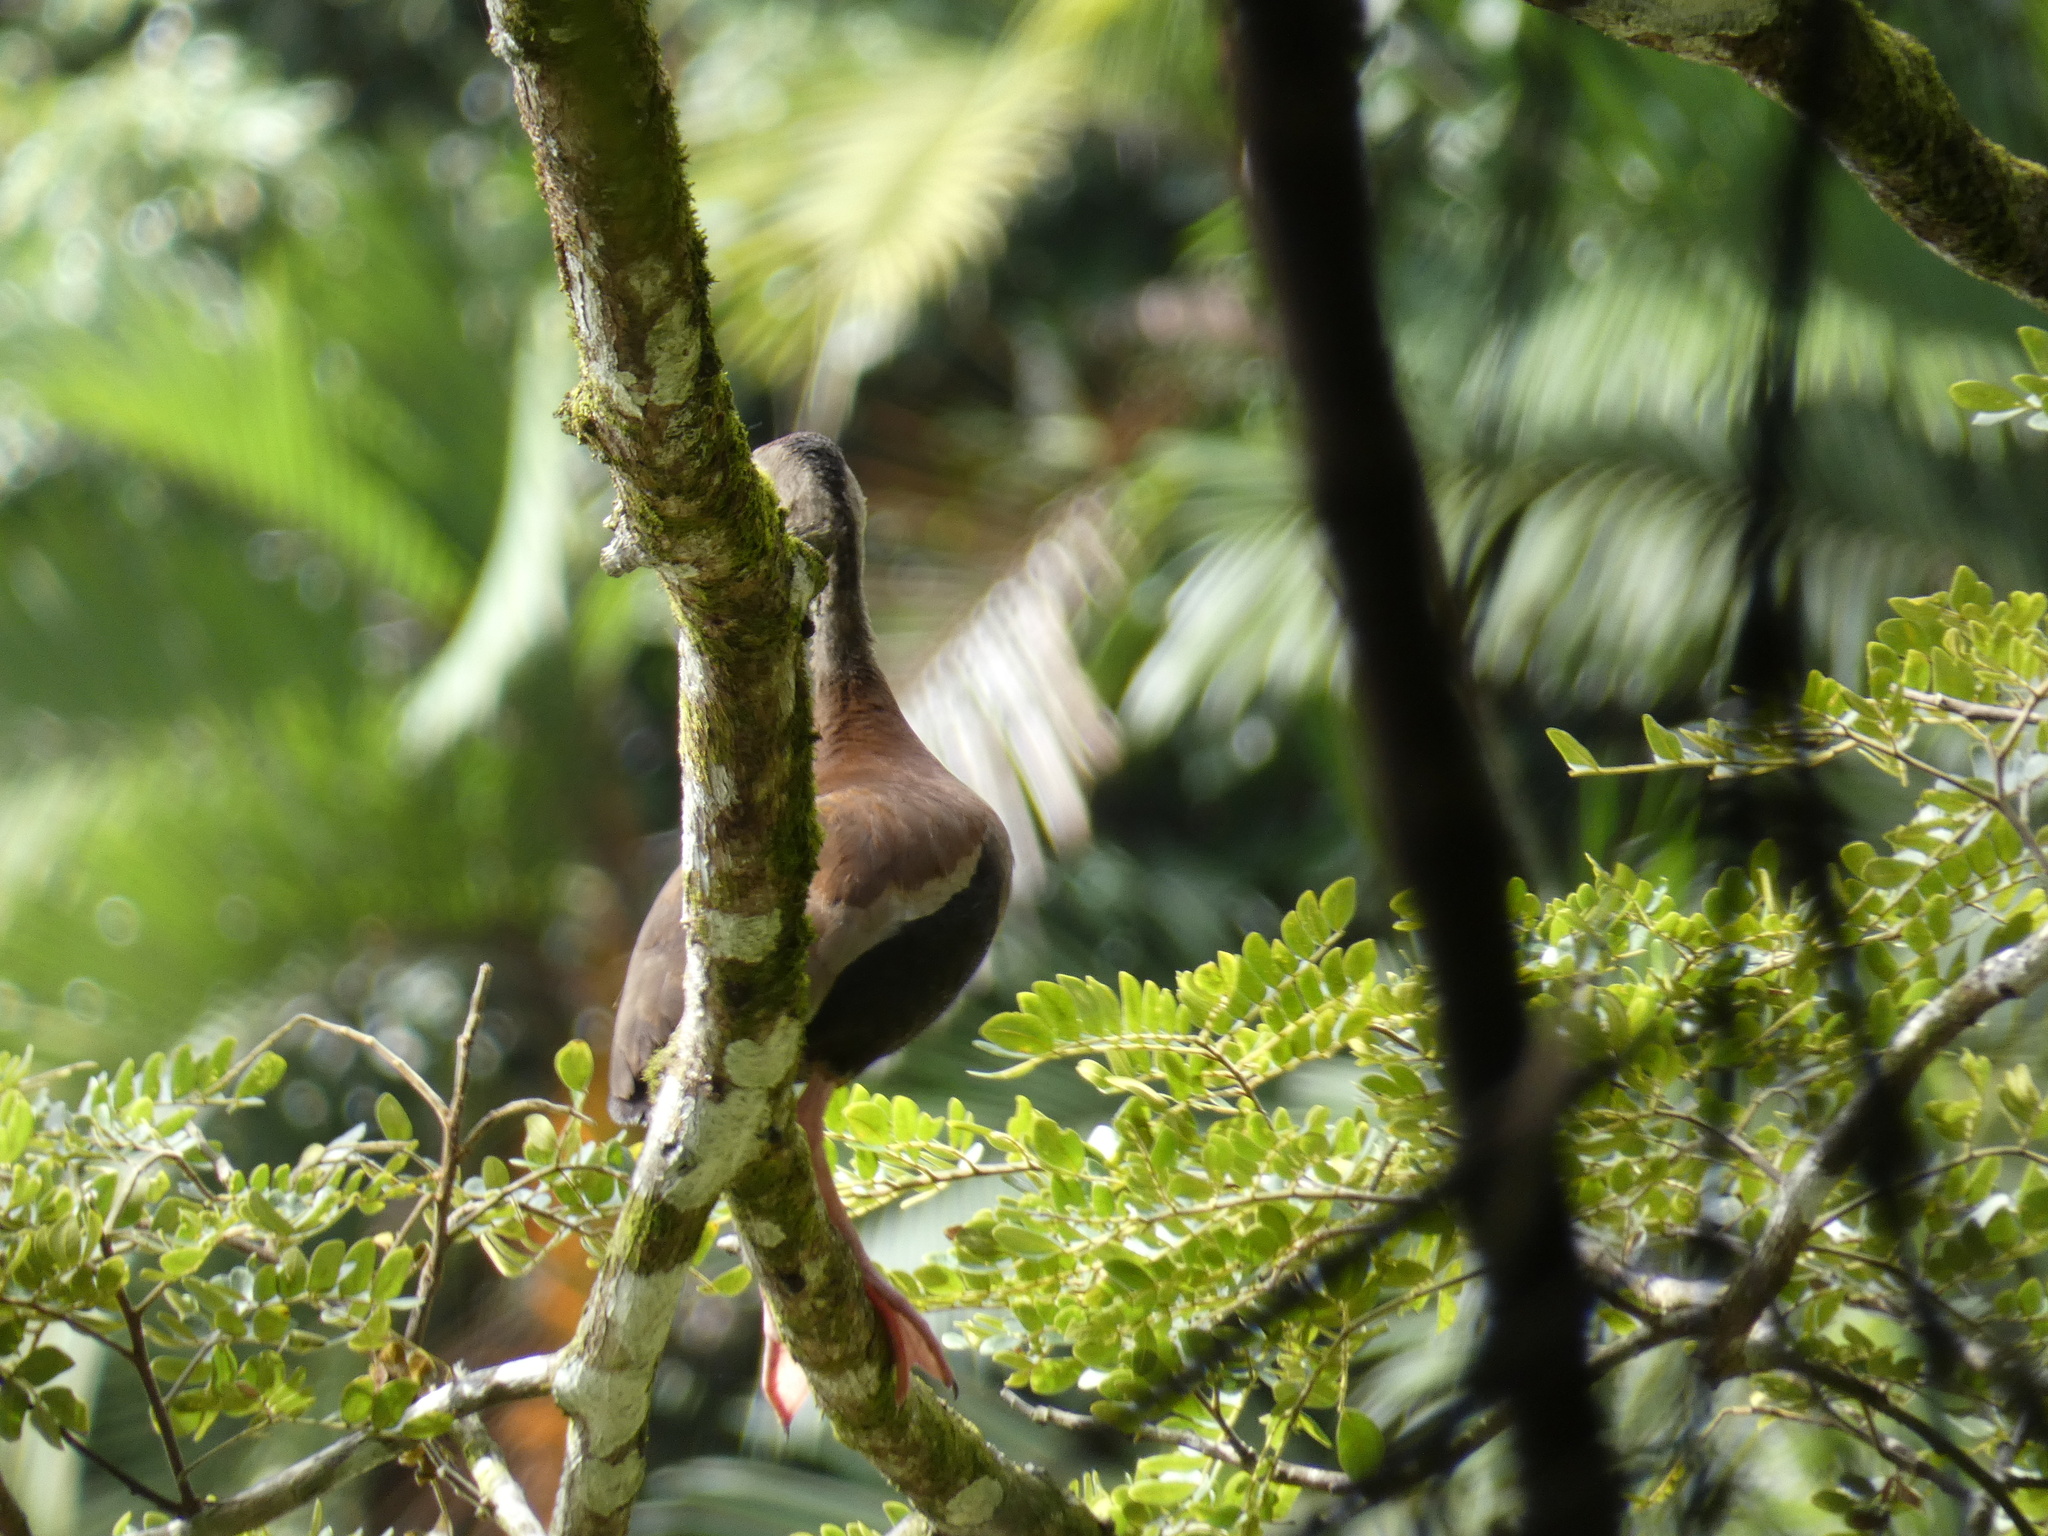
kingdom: Animalia
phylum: Chordata
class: Aves
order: Anseriformes
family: Anatidae
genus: Dendrocygna
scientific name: Dendrocygna autumnalis
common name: Black-bellied whistling duck
